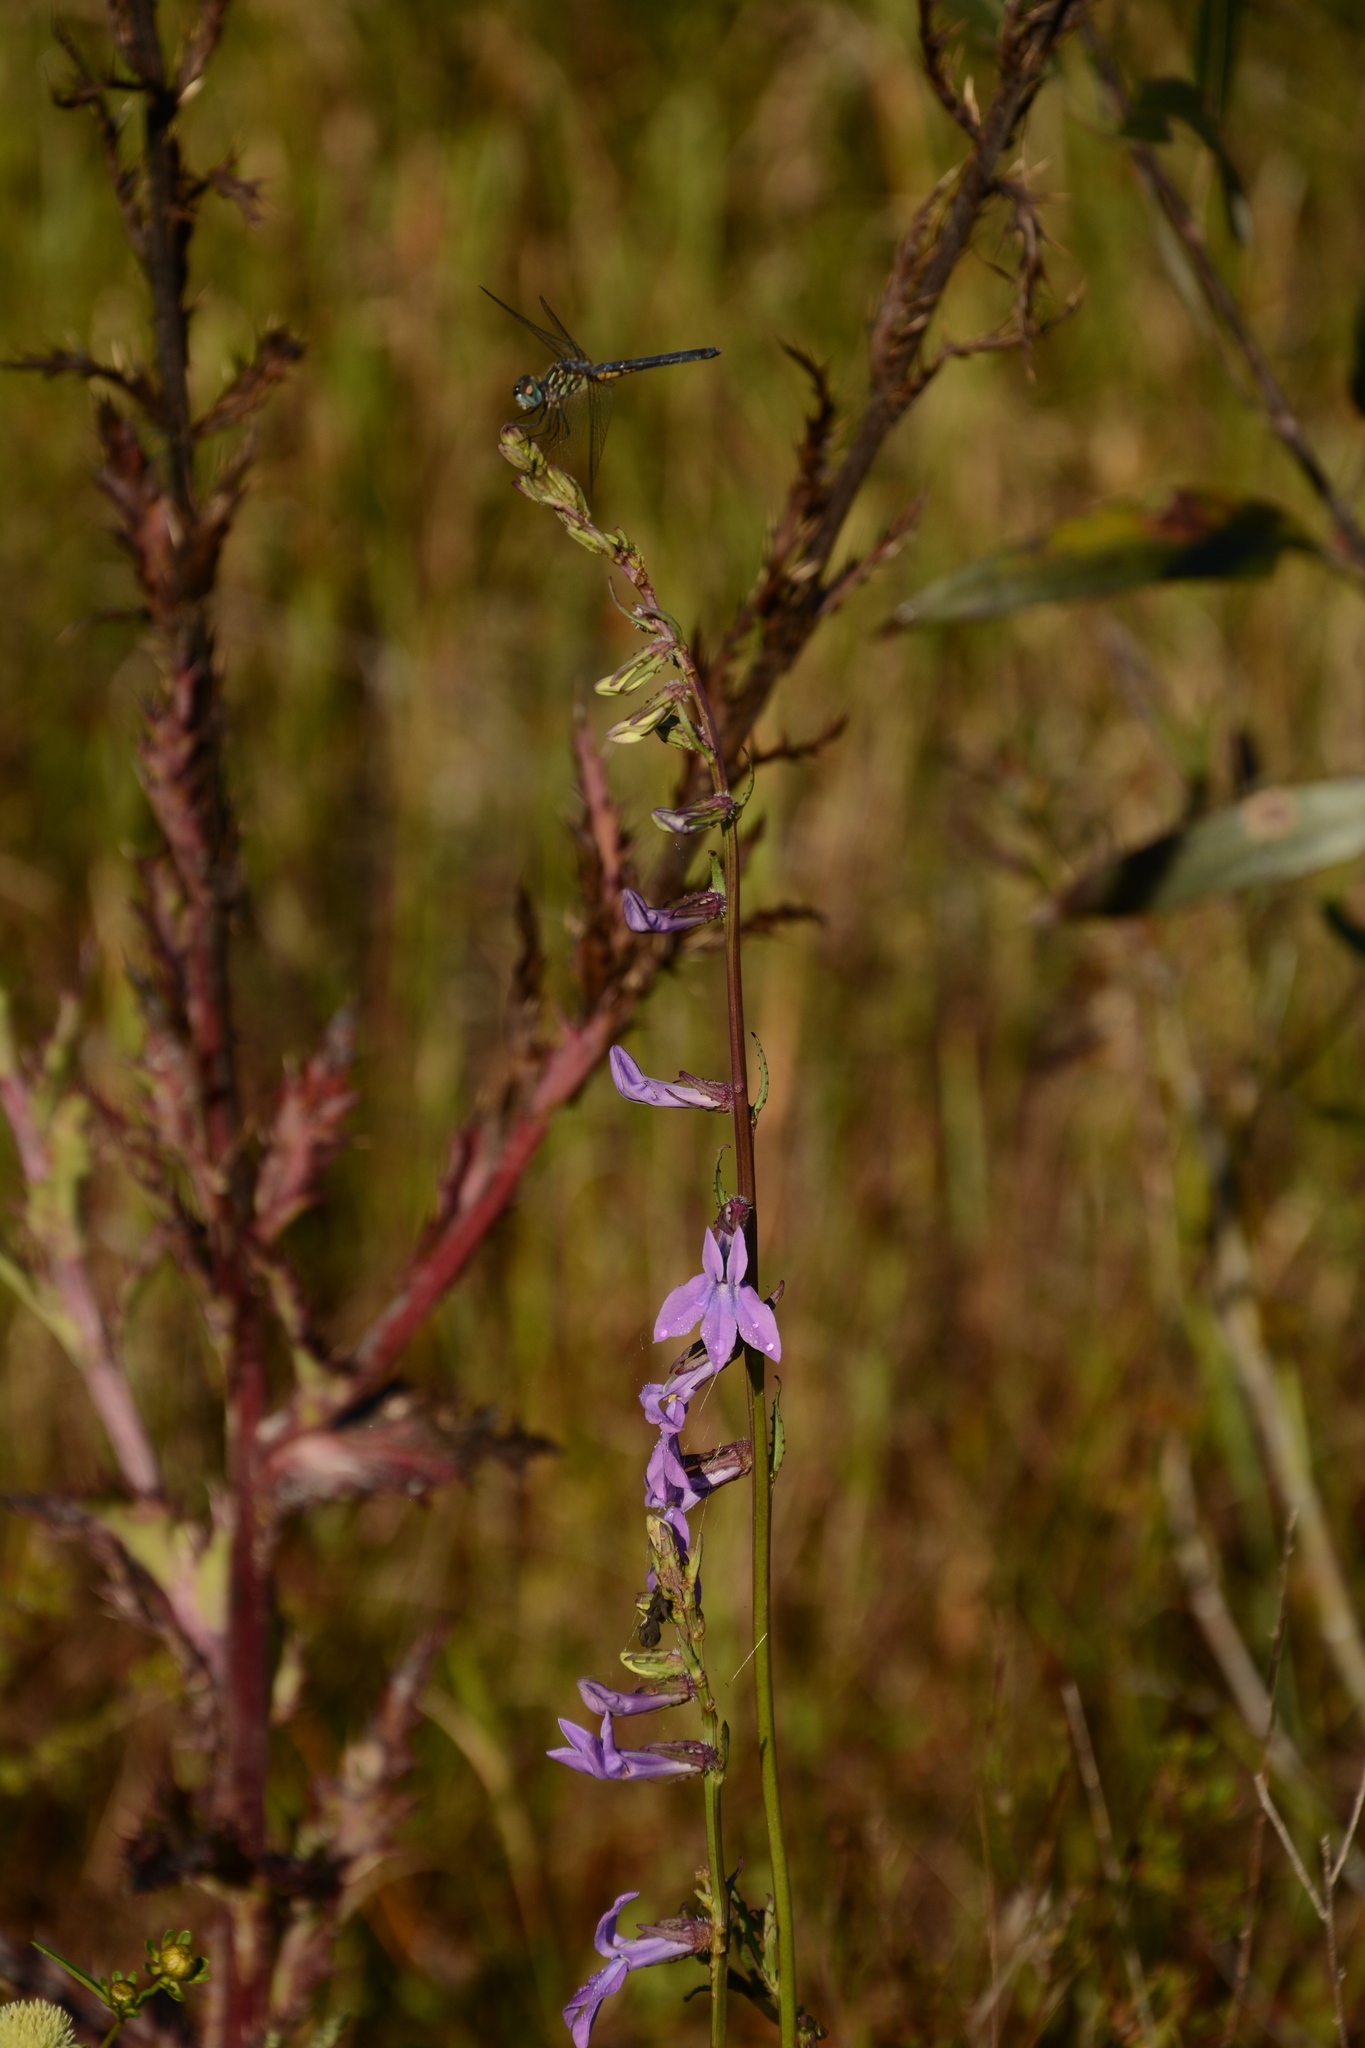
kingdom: Plantae
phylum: Tracheophyta
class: Magnoliopsida
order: Asterales
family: Campanulaceae
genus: Lobelia
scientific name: Lobelia glandulosa
